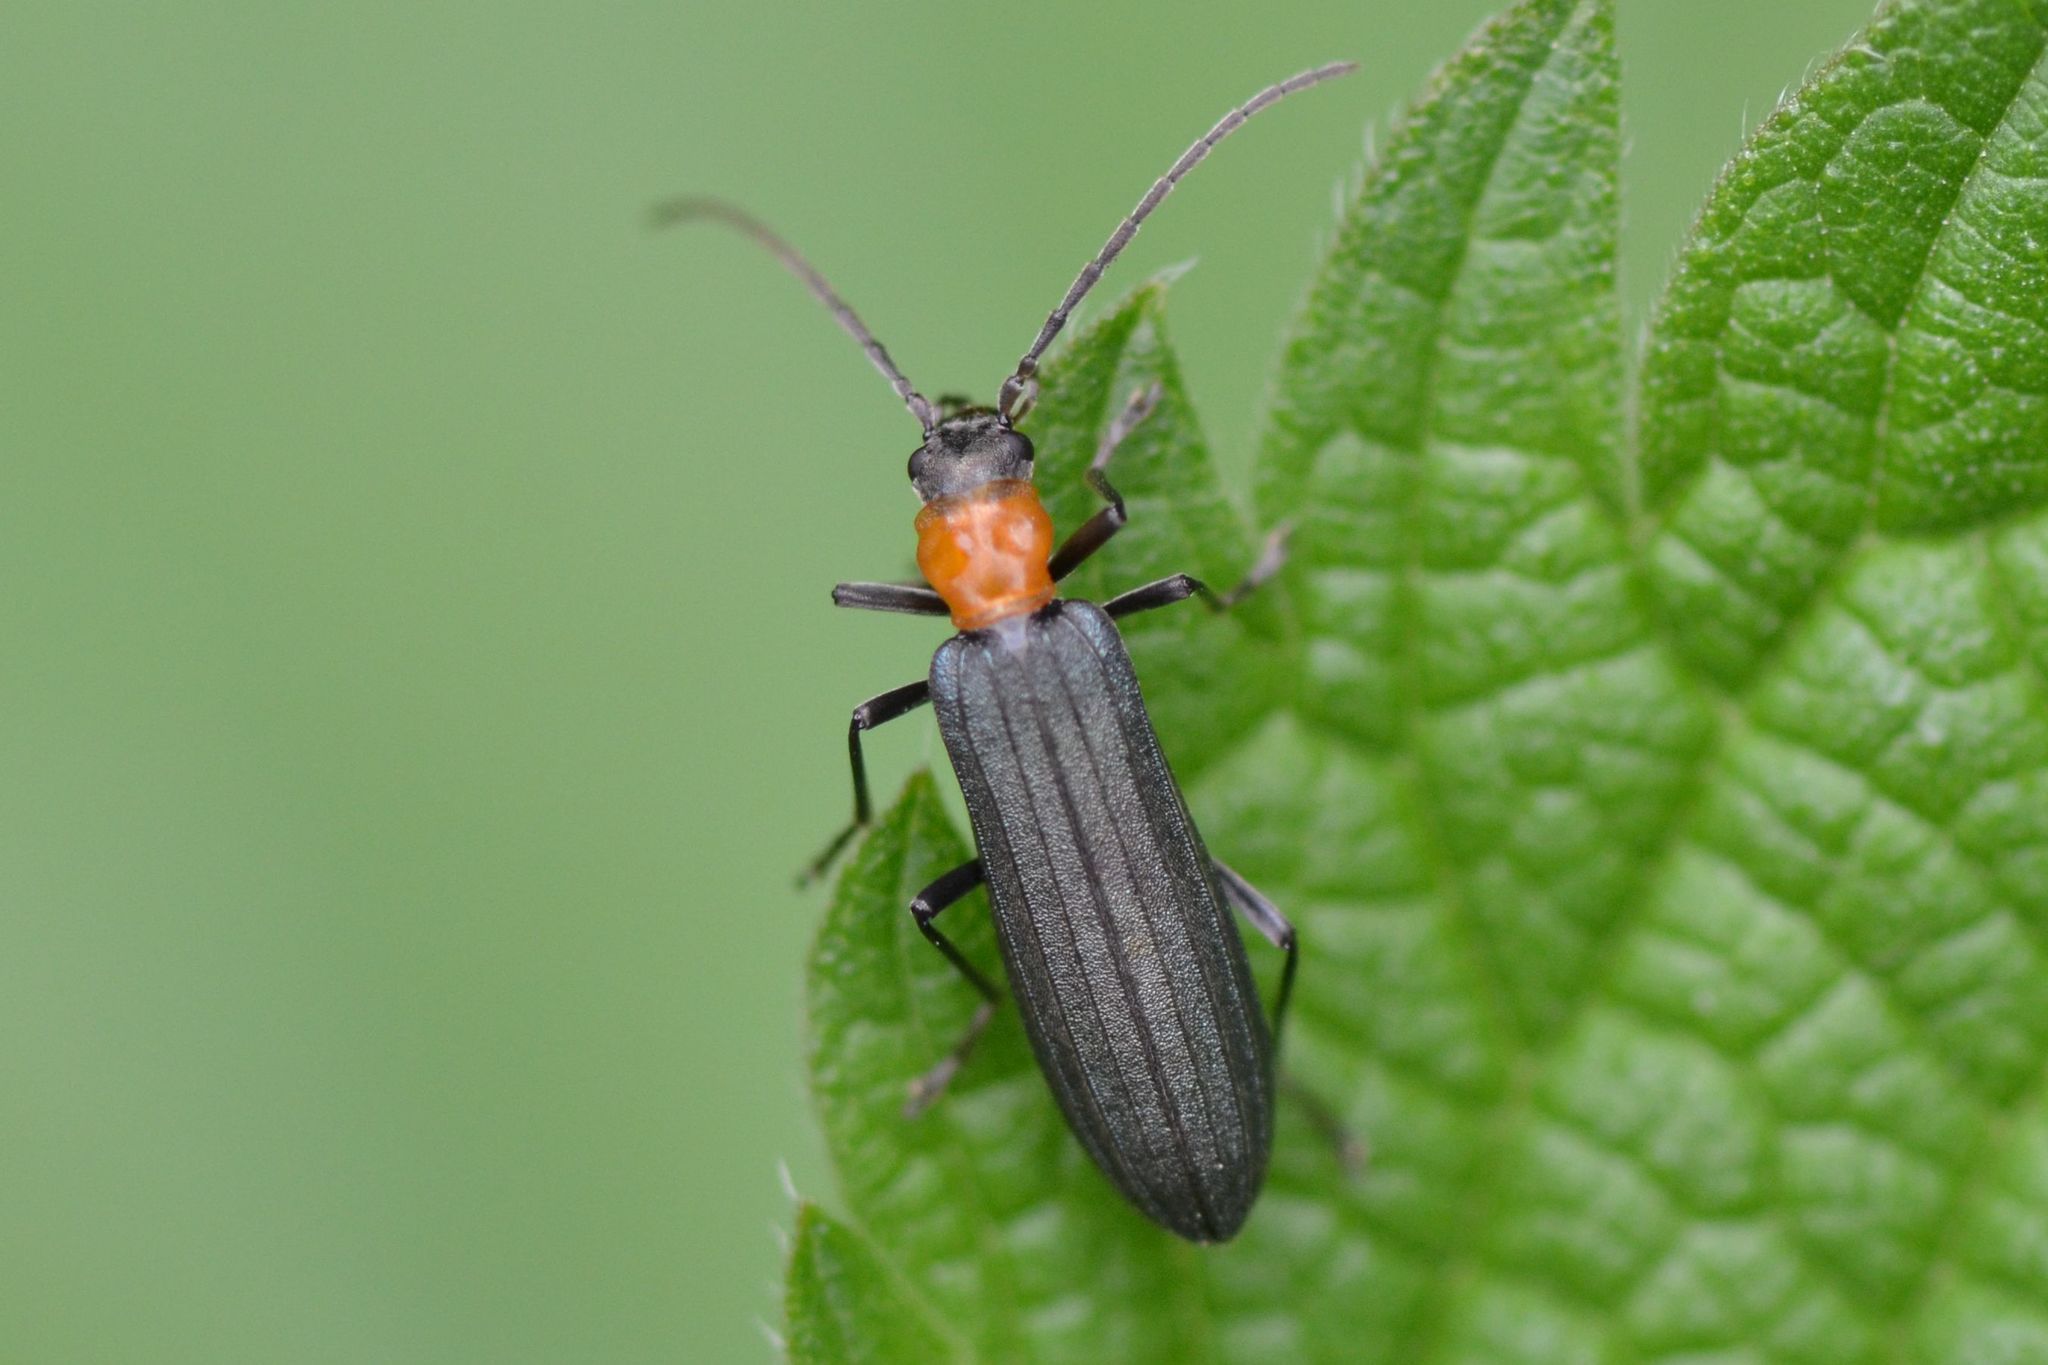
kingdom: Animalia
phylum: Arthropoda
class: Insecta
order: Coleoptera
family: Oedemeridae
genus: Ischnomera
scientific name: Ischnomera sanguinicollis
